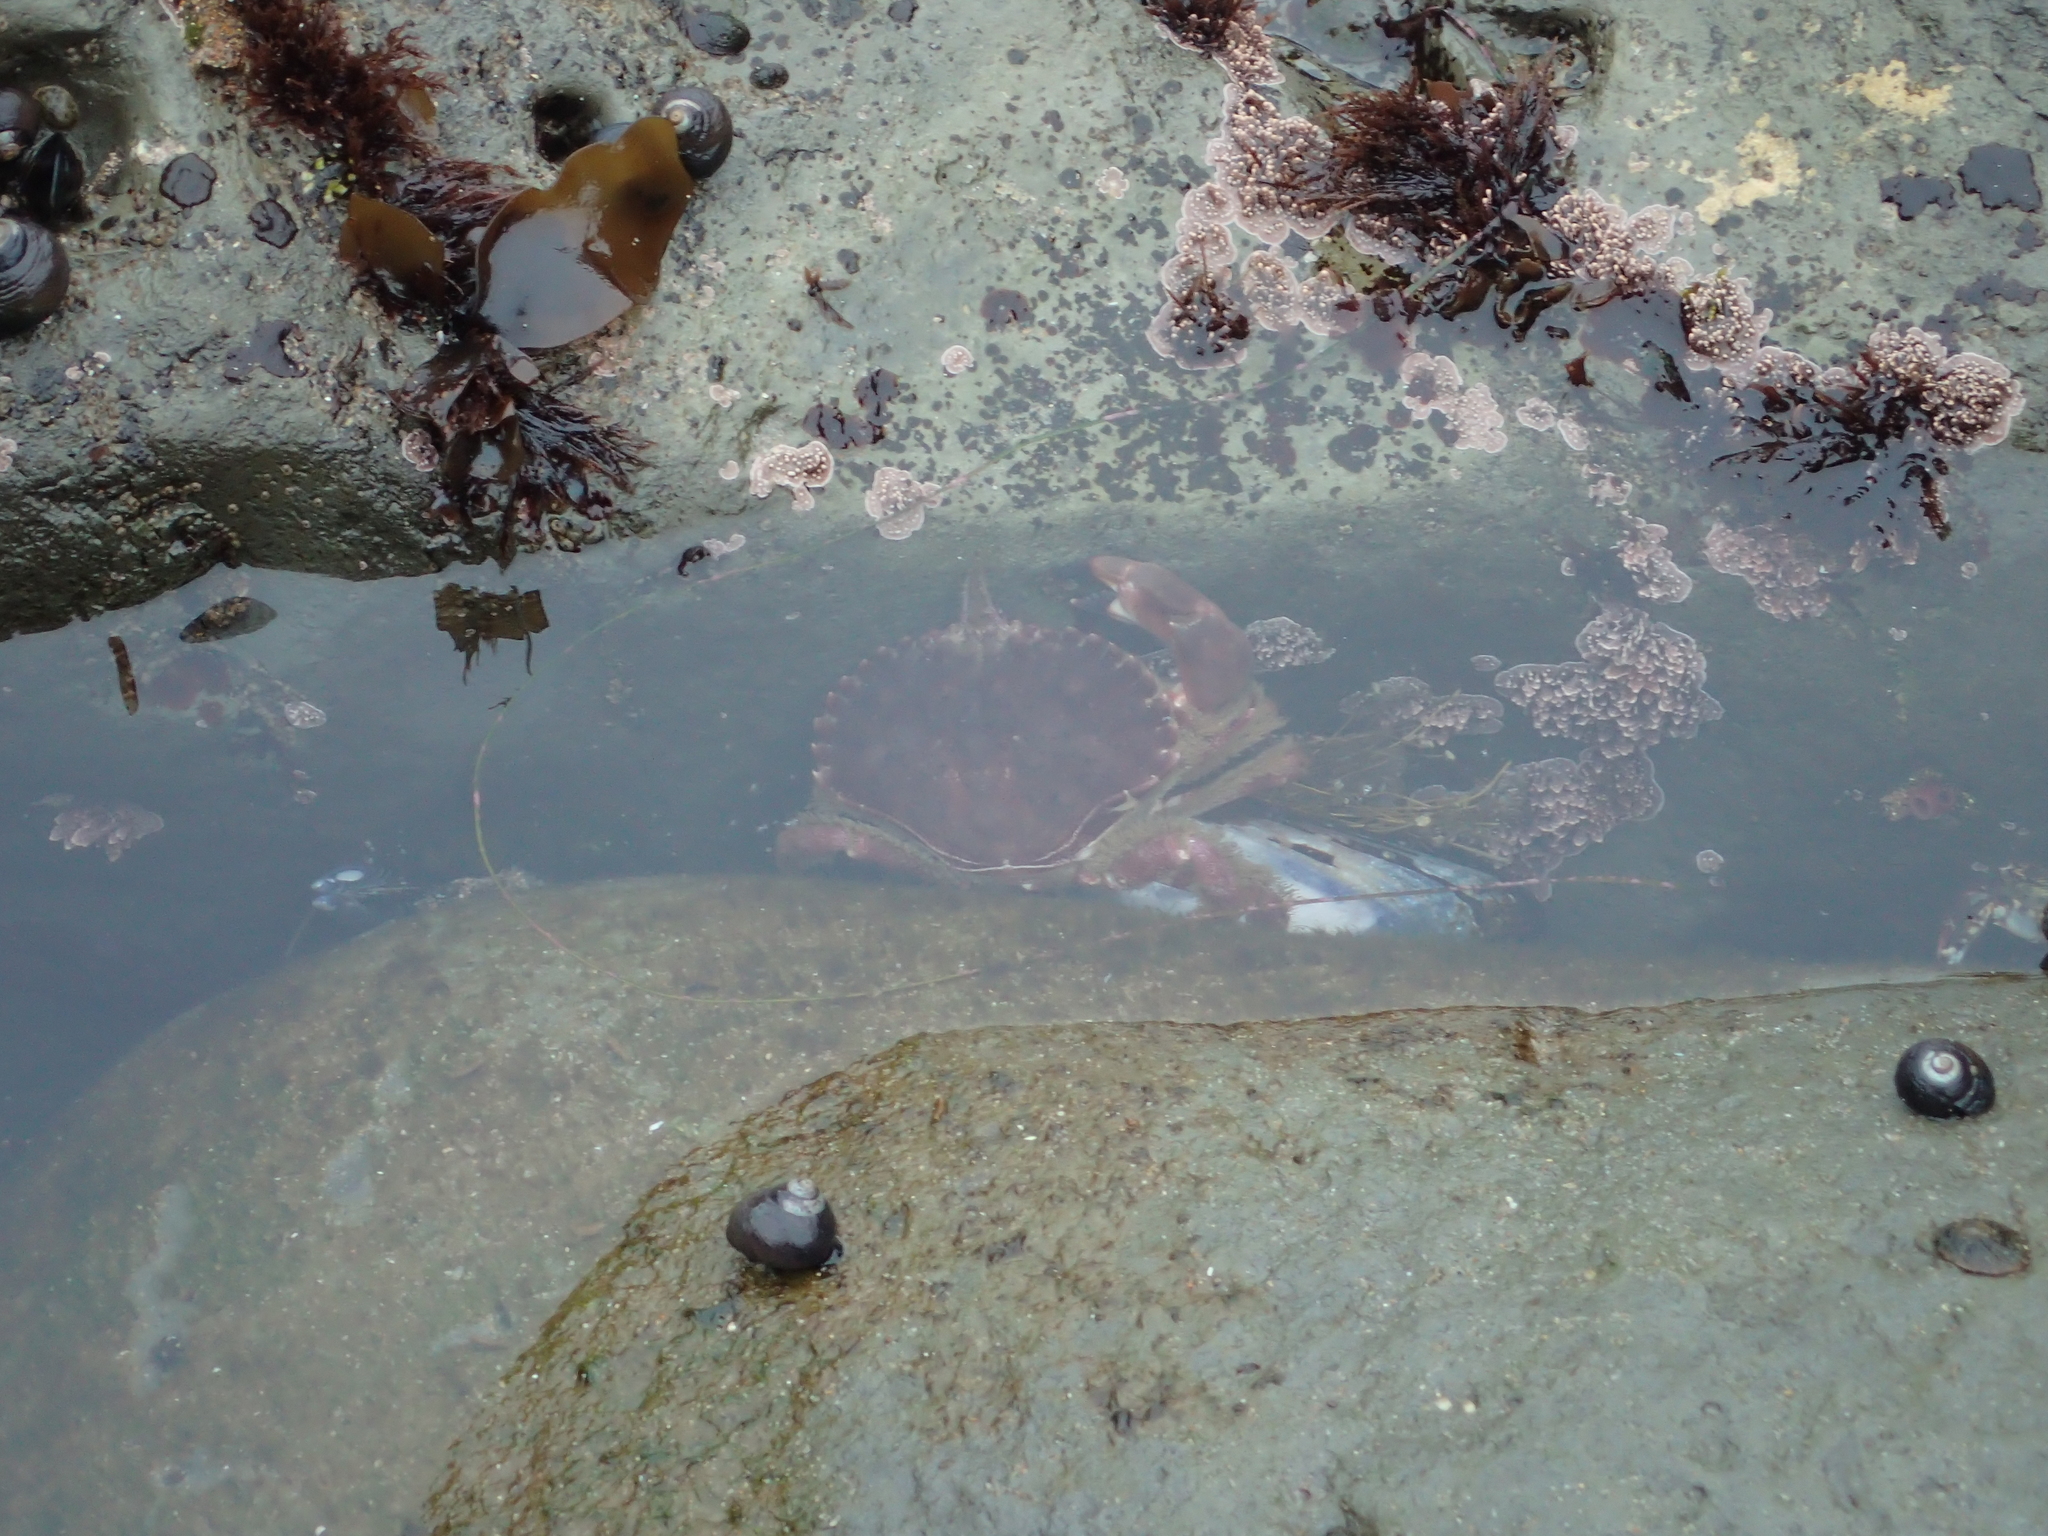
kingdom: Animalia
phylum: Arthropoda
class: Malacostraca
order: Decapoda
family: Cancridae
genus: Romaleon
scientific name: Romaleon antennarium
